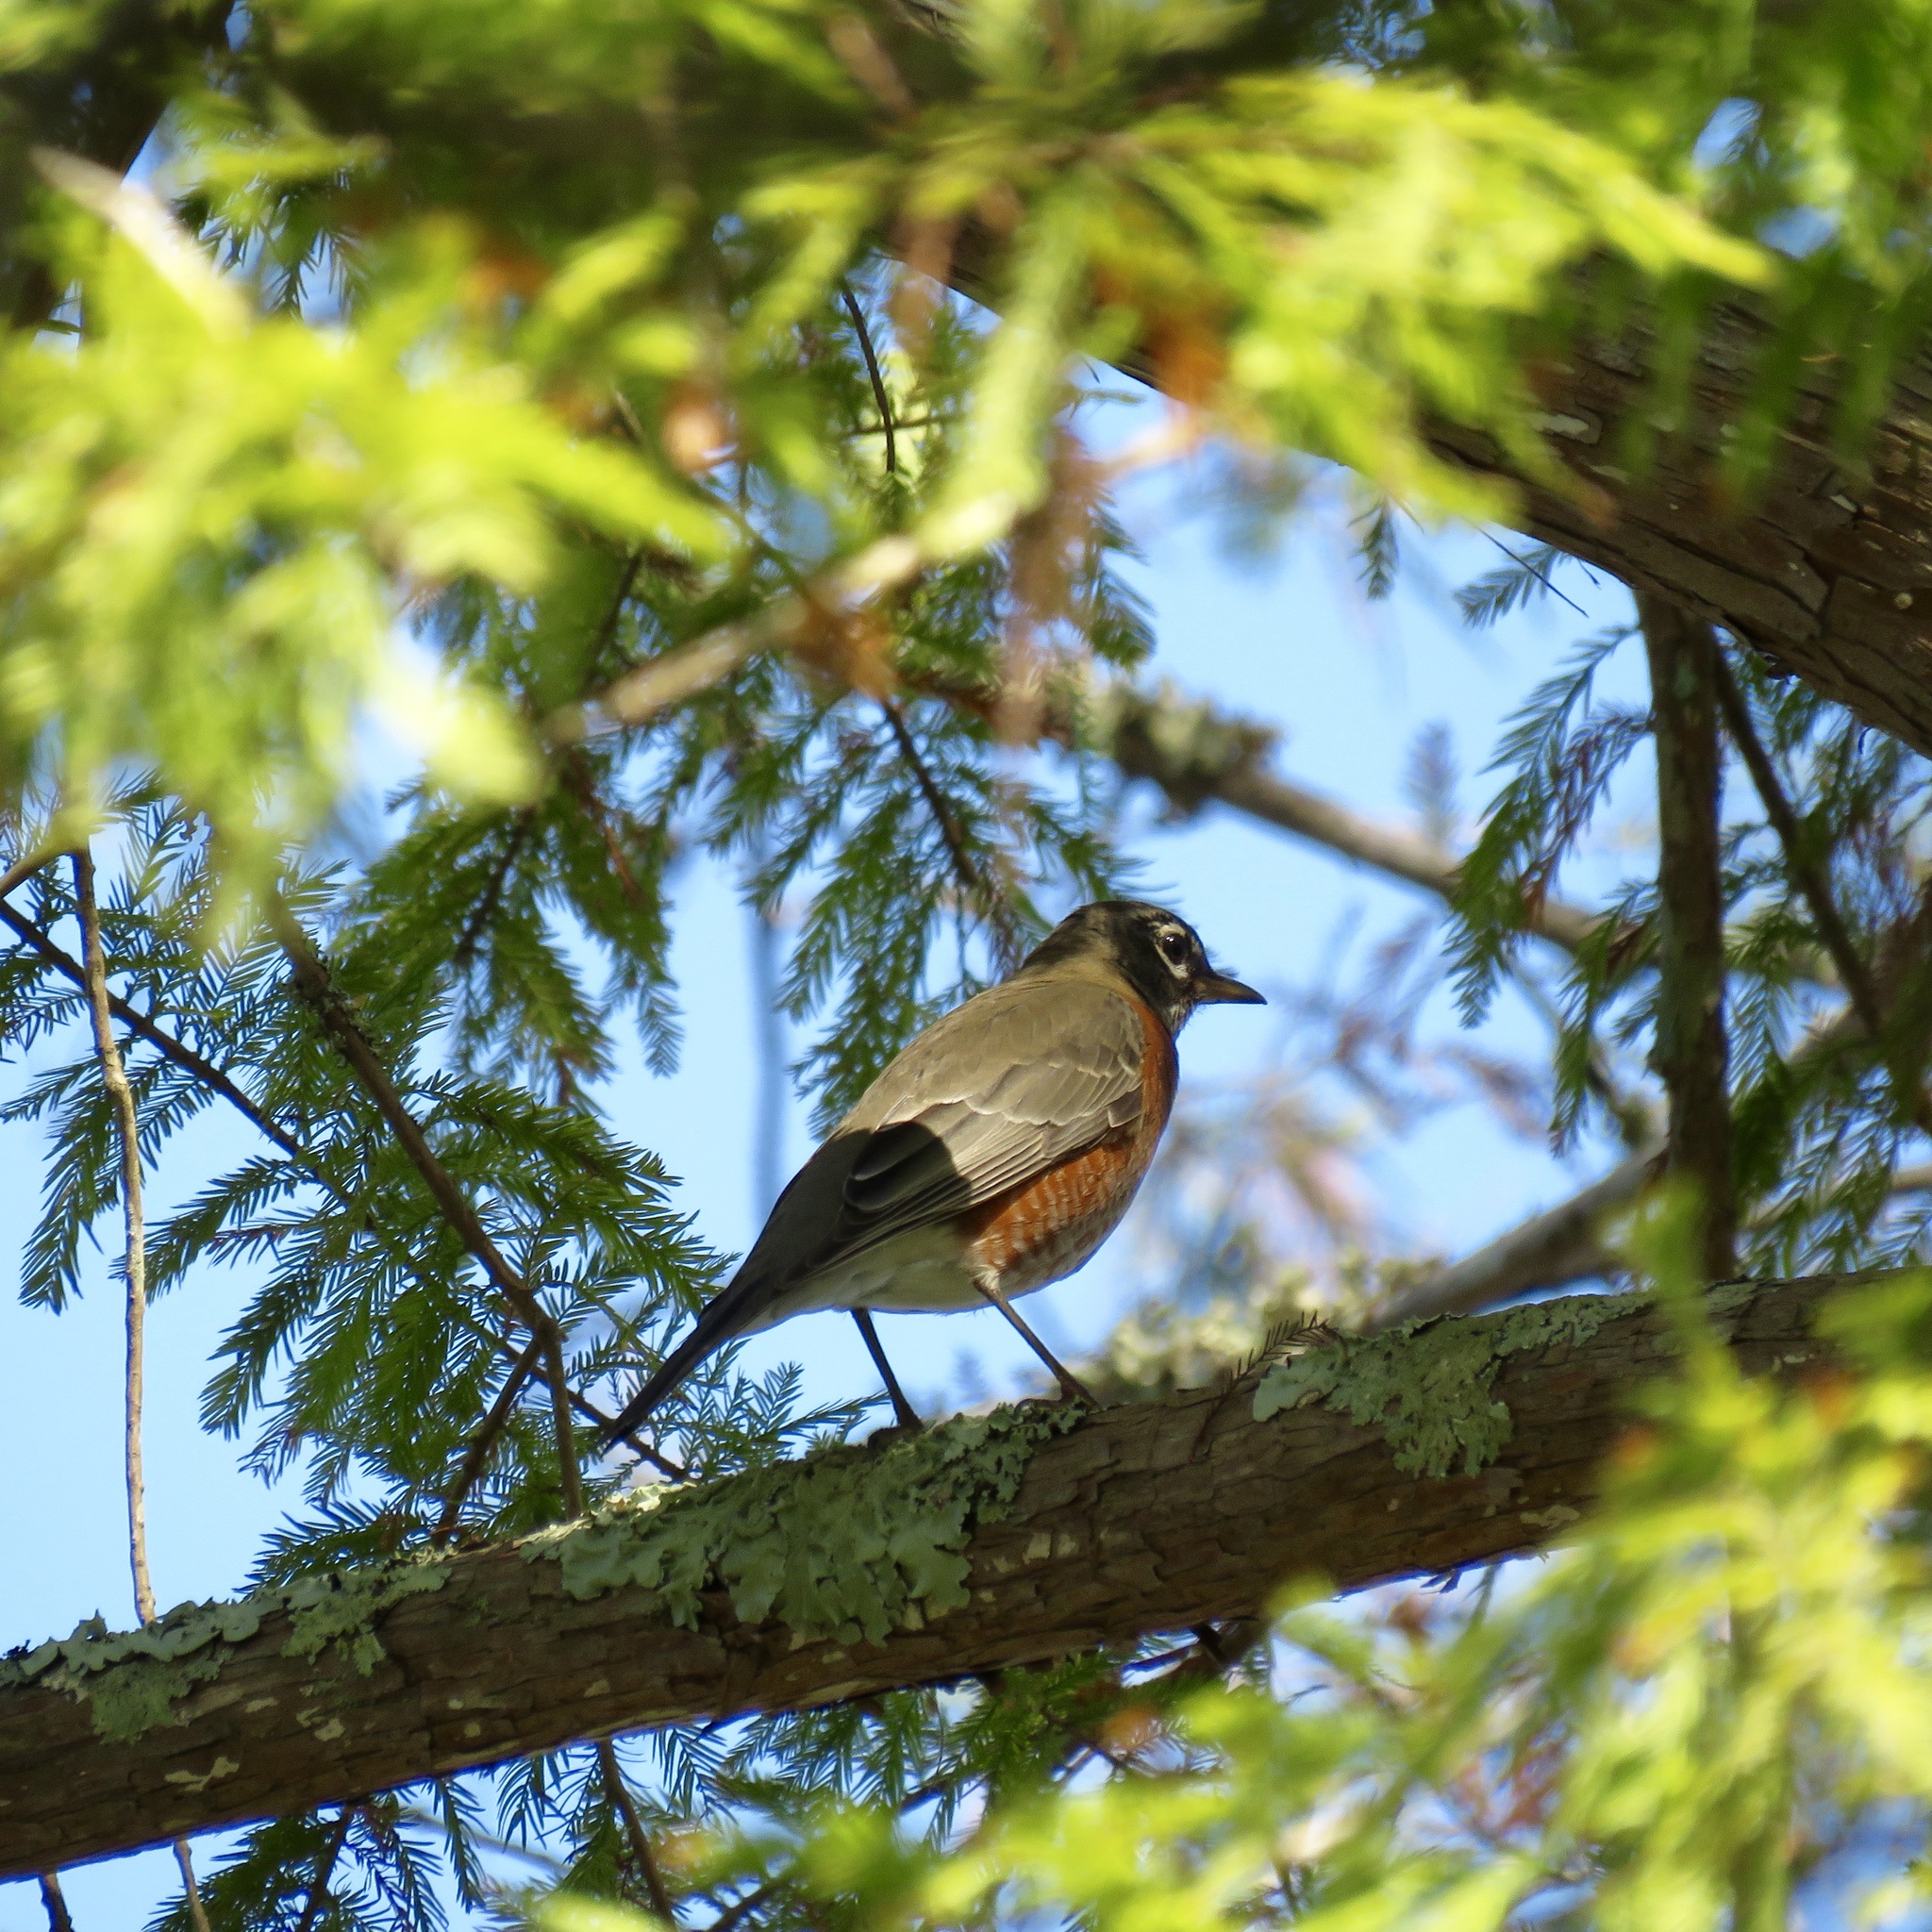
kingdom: Animalia
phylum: Chordata
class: Aves
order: Passeriformes
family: Turdidae
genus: Turdus
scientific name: Turdus migratorius
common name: American robin
